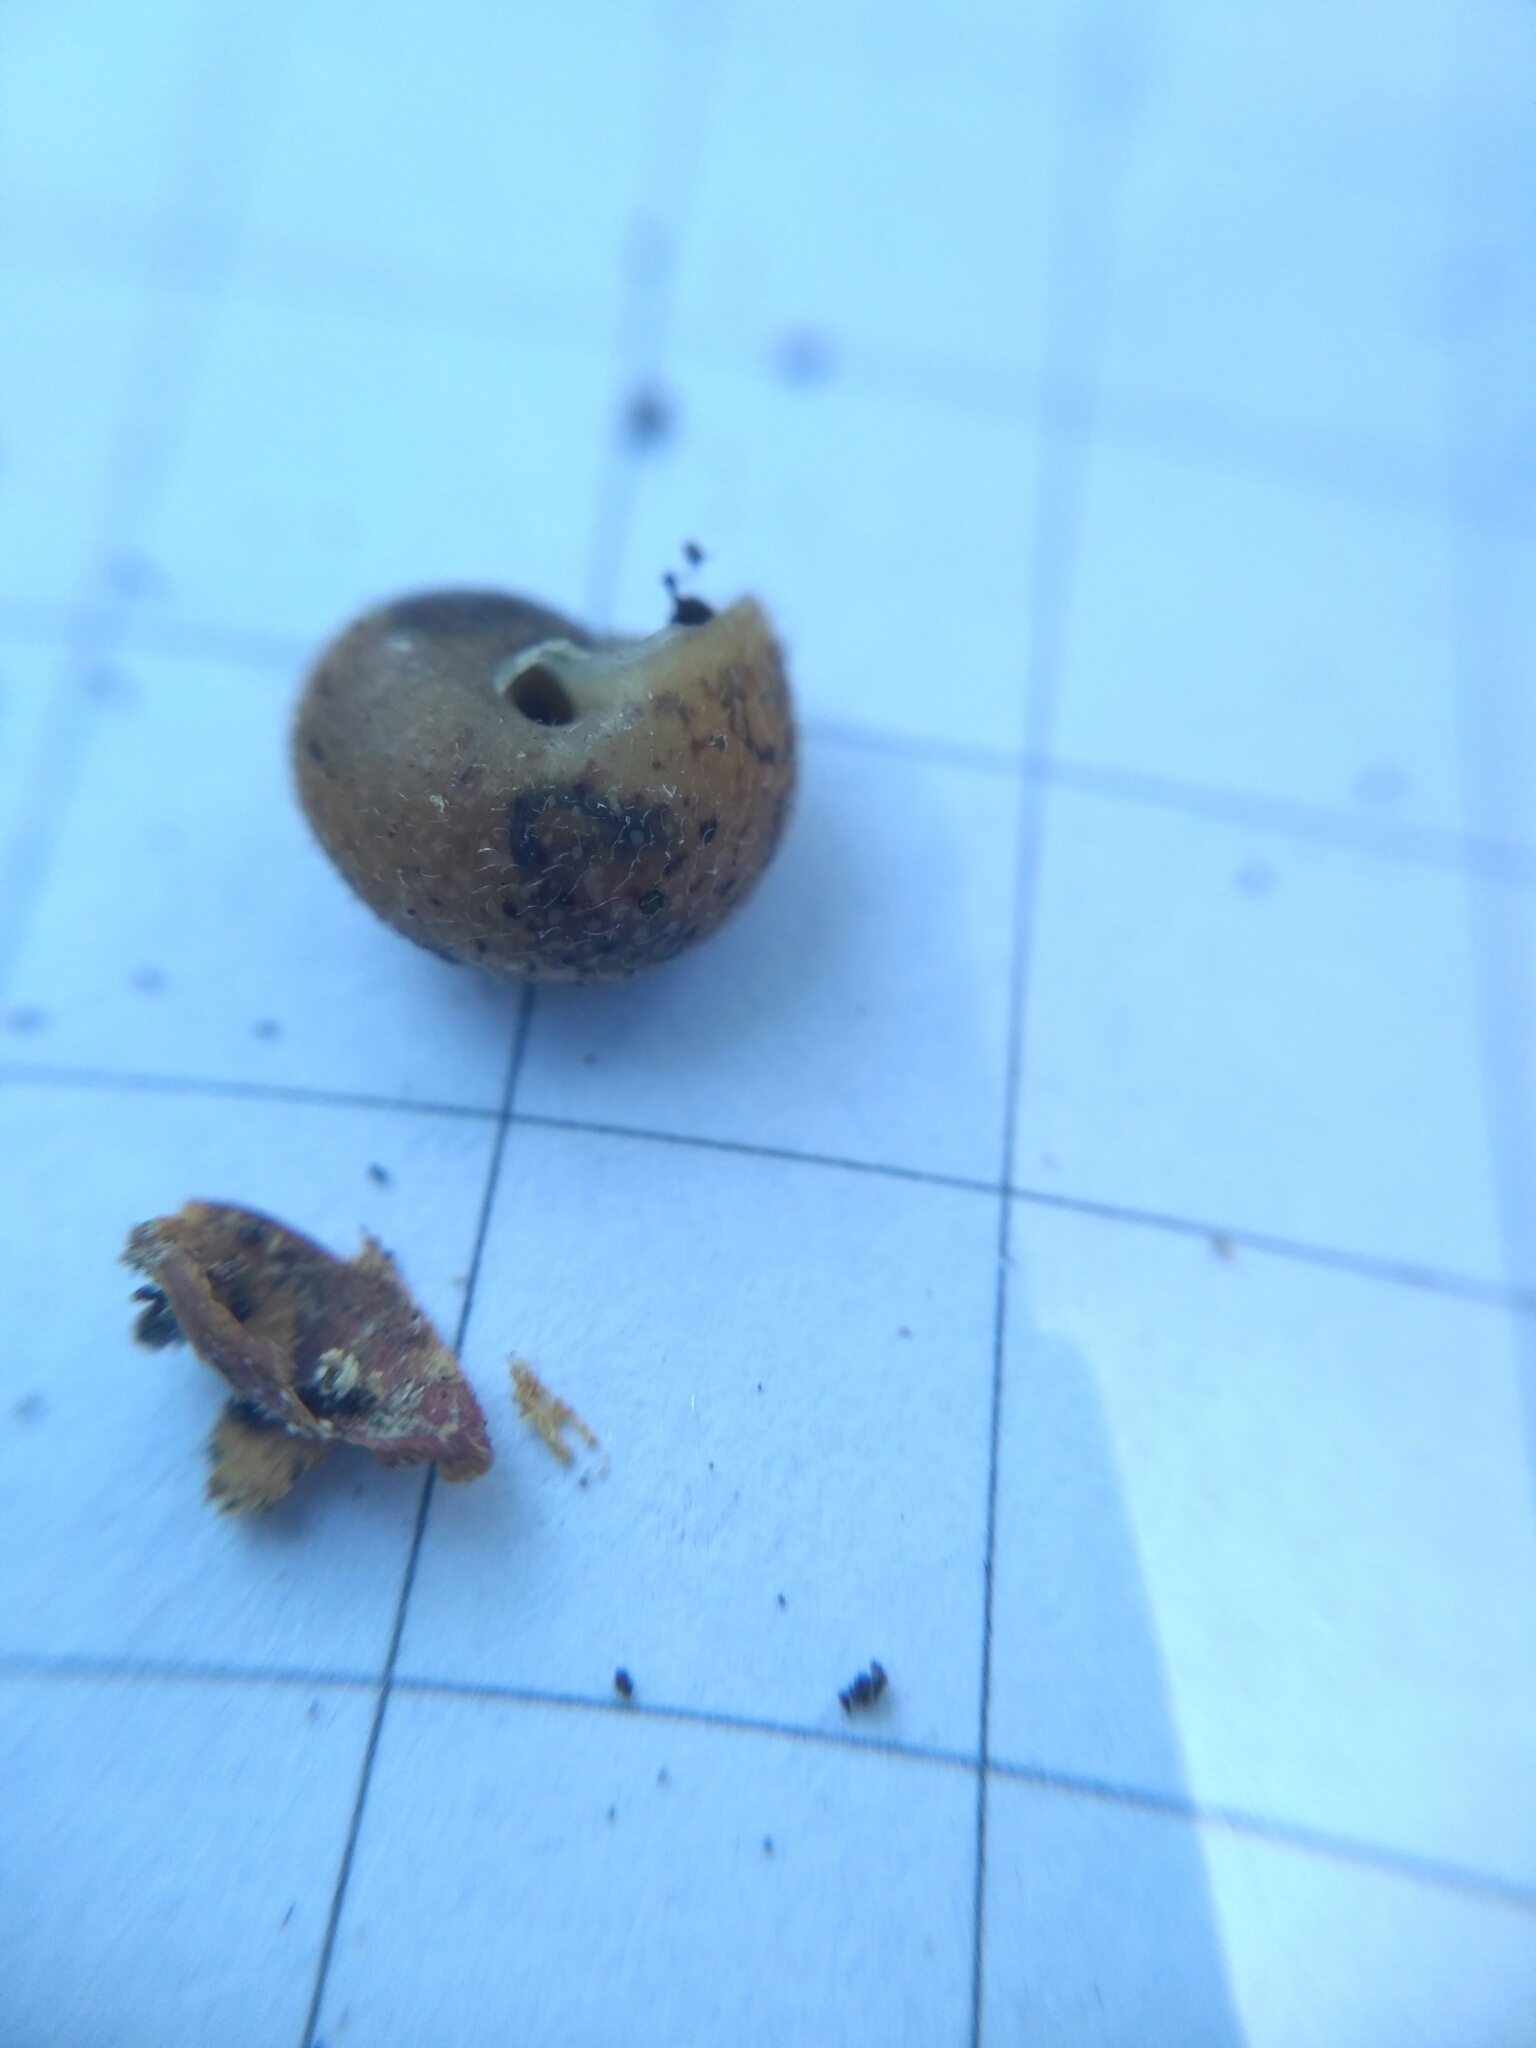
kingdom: Animalia
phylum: Mollusca
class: Gastropoda
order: Stylommatophora
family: Hygromiidae
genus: Euomphalia
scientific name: Euomphalia strigella
